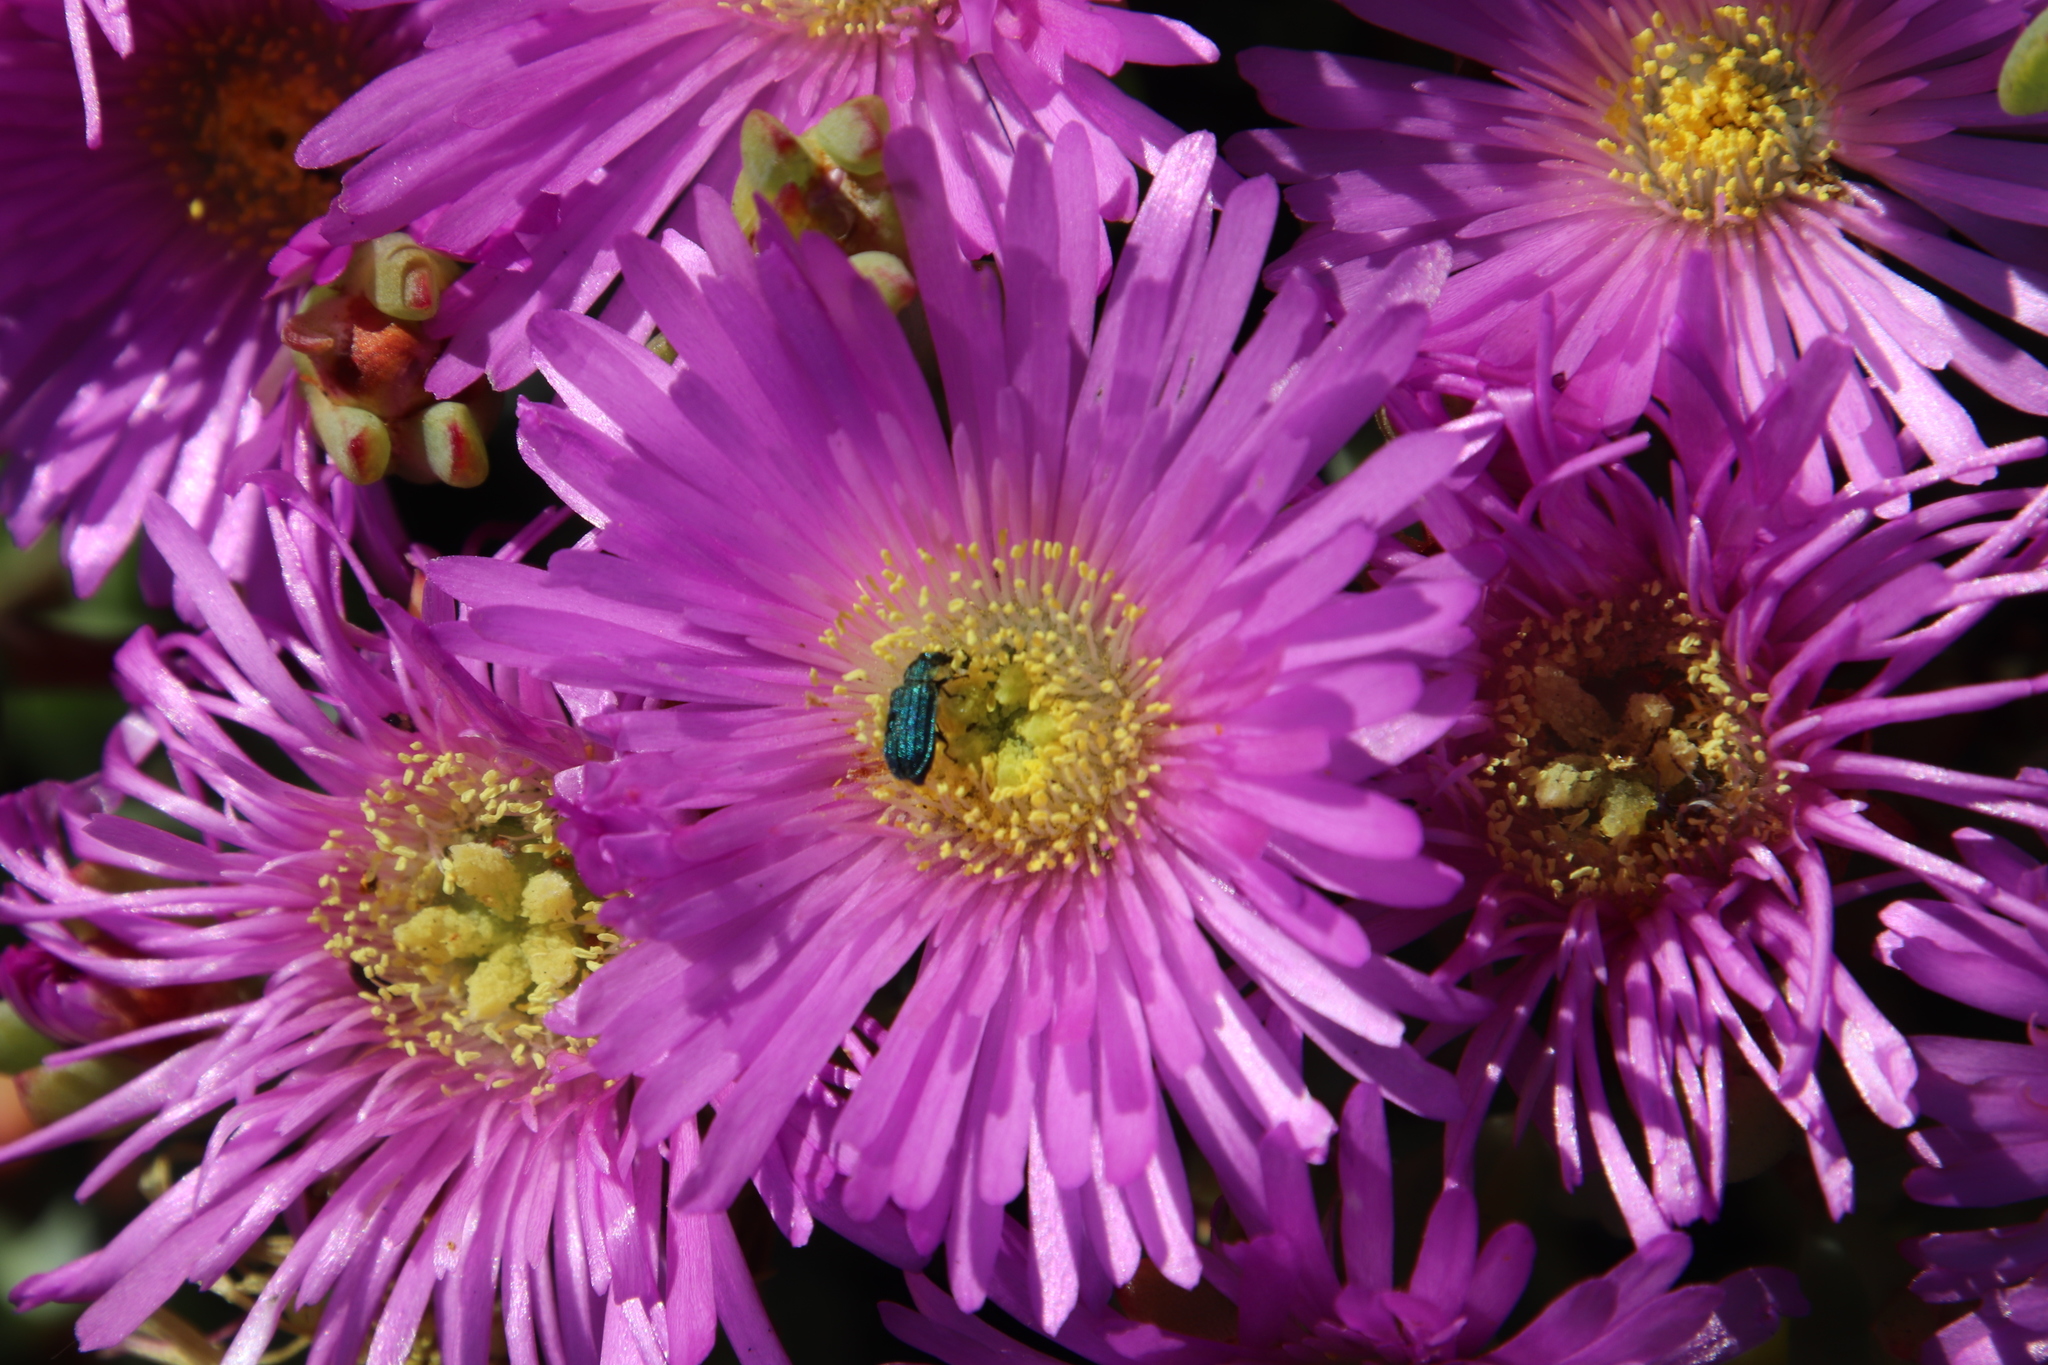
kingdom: Plantae
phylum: Tracheophyta
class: Magnoliopsida
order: Caryophyllales
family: Aizoaceae
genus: Oscularia
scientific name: Oscularia falciformis
